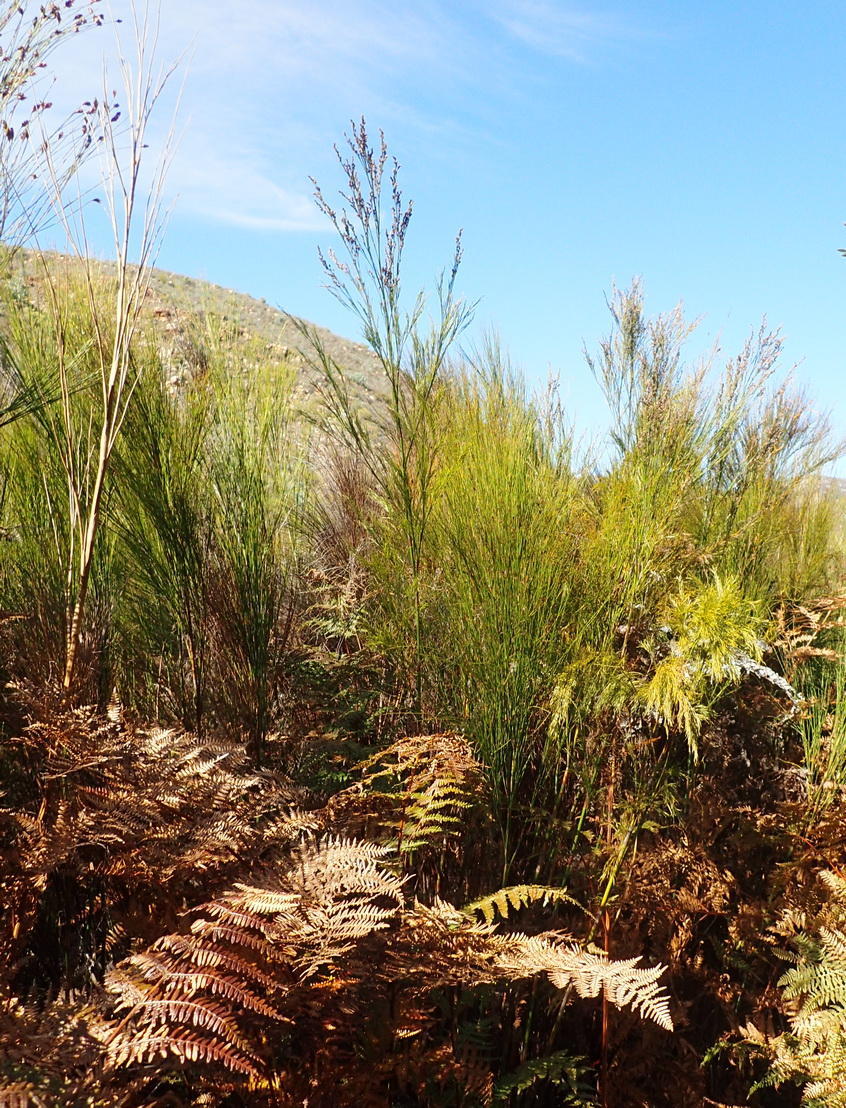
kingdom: Plantae
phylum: Tracheophyta
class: Liliopsida
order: Poales
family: Restionaceae
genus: Restio
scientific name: Restio paniculatus
